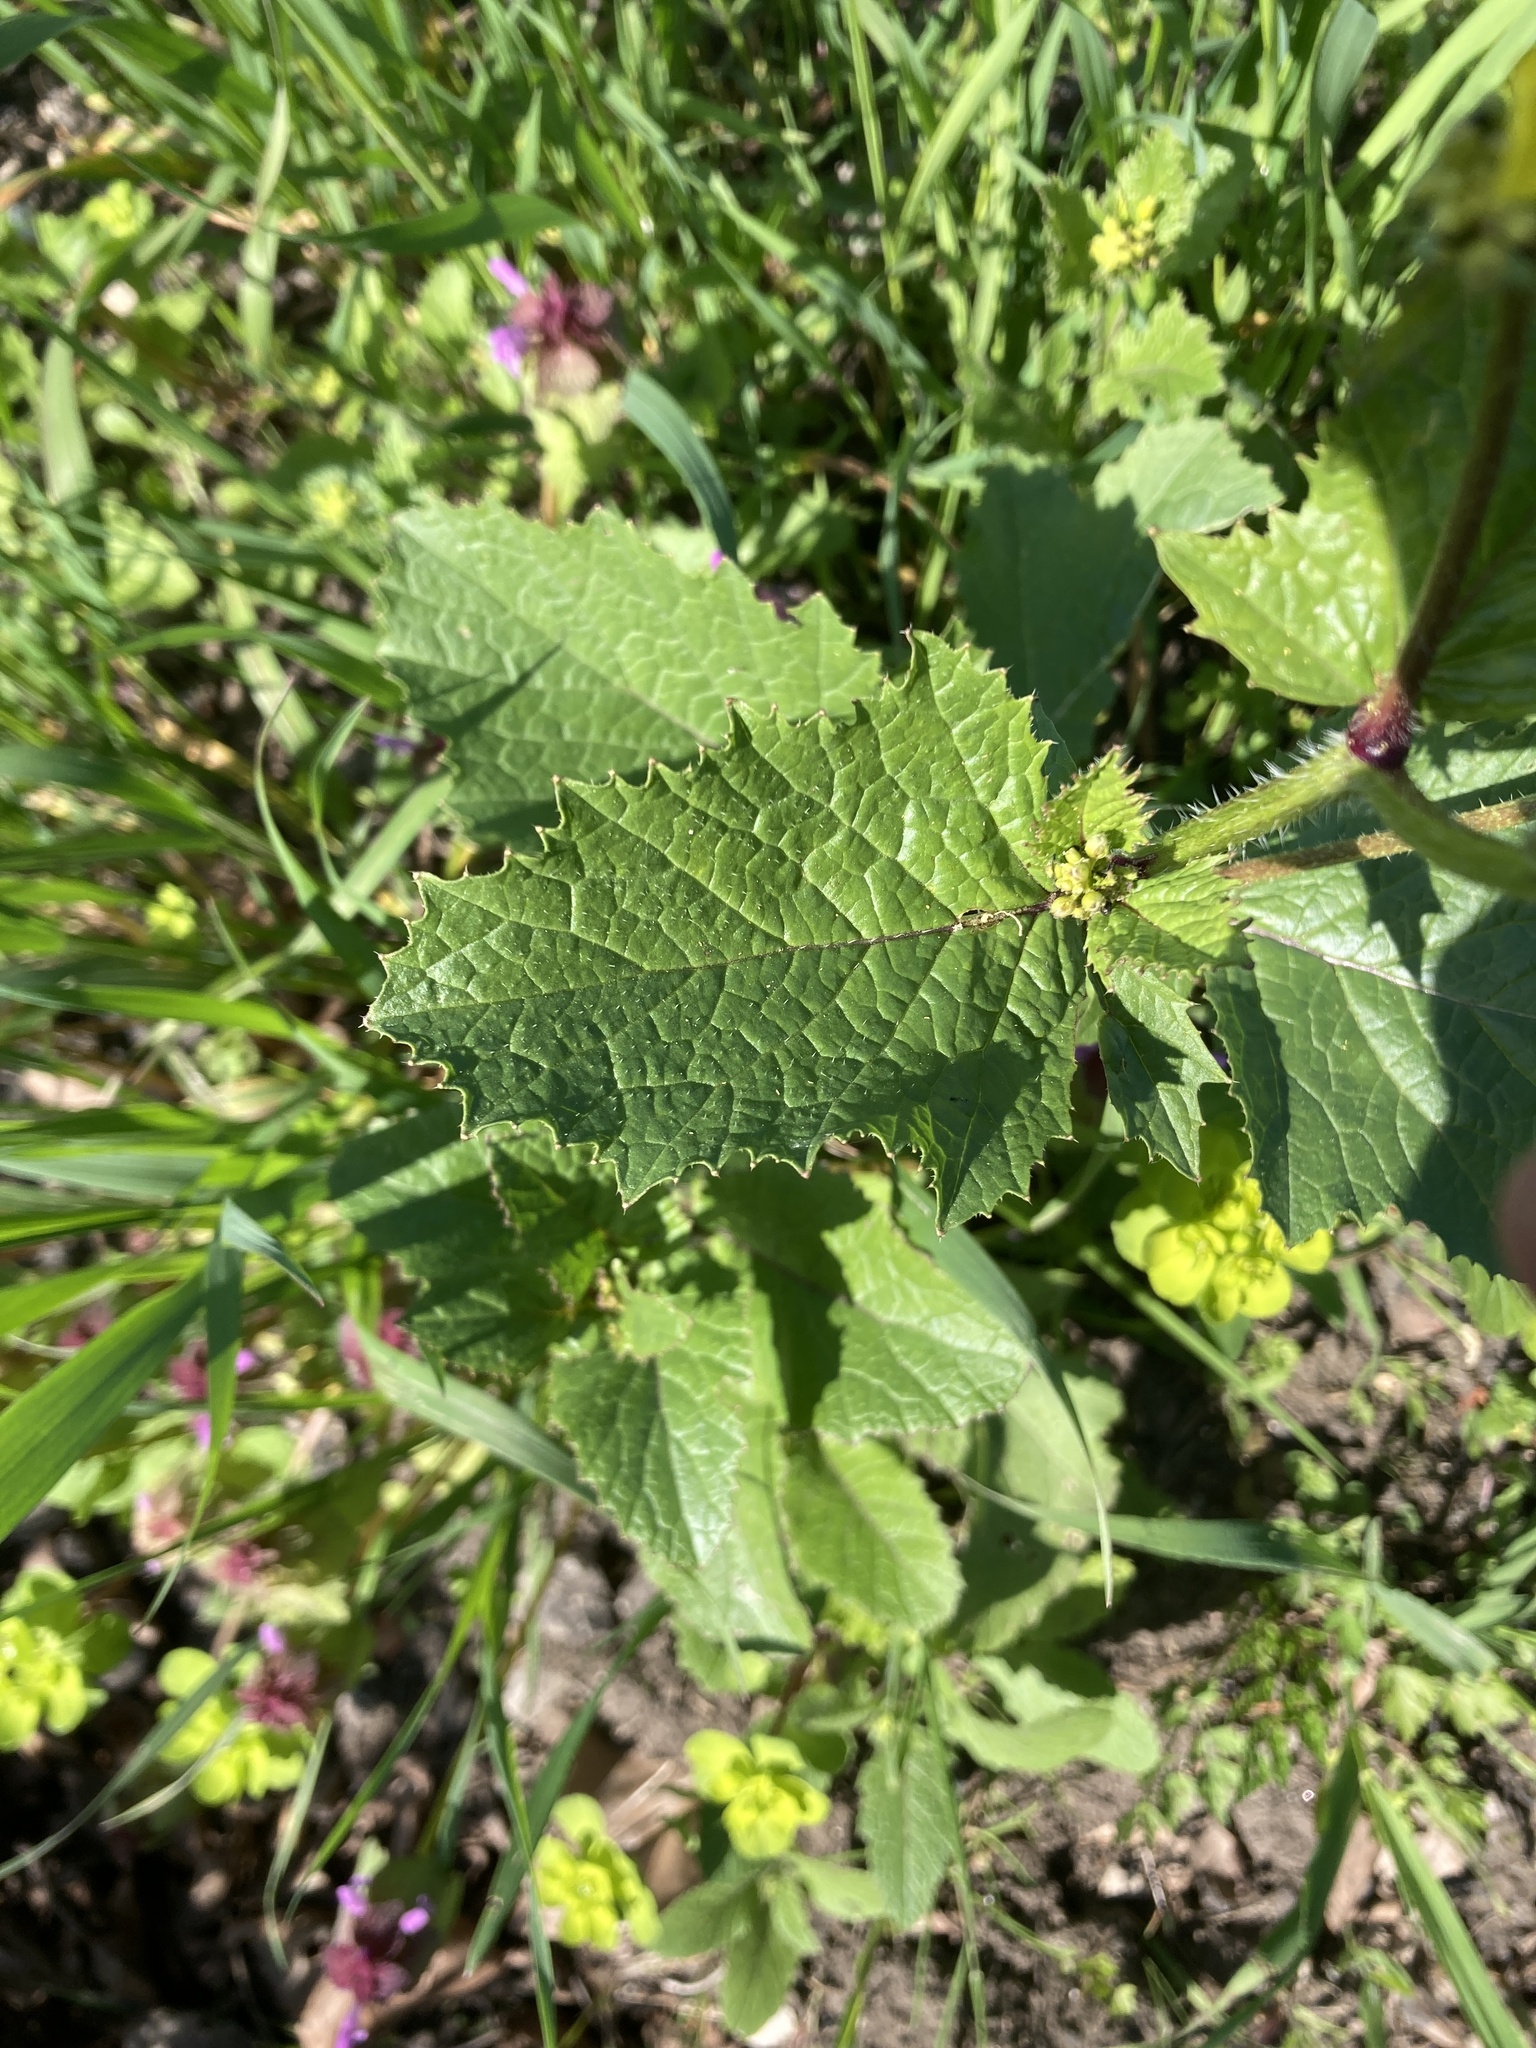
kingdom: Plantae
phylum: Tracheophyta
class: Magnoliopsida
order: Brassicales
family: Brassicaceae
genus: Sinapis
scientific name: Sinapis arvensis
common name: Charlock
